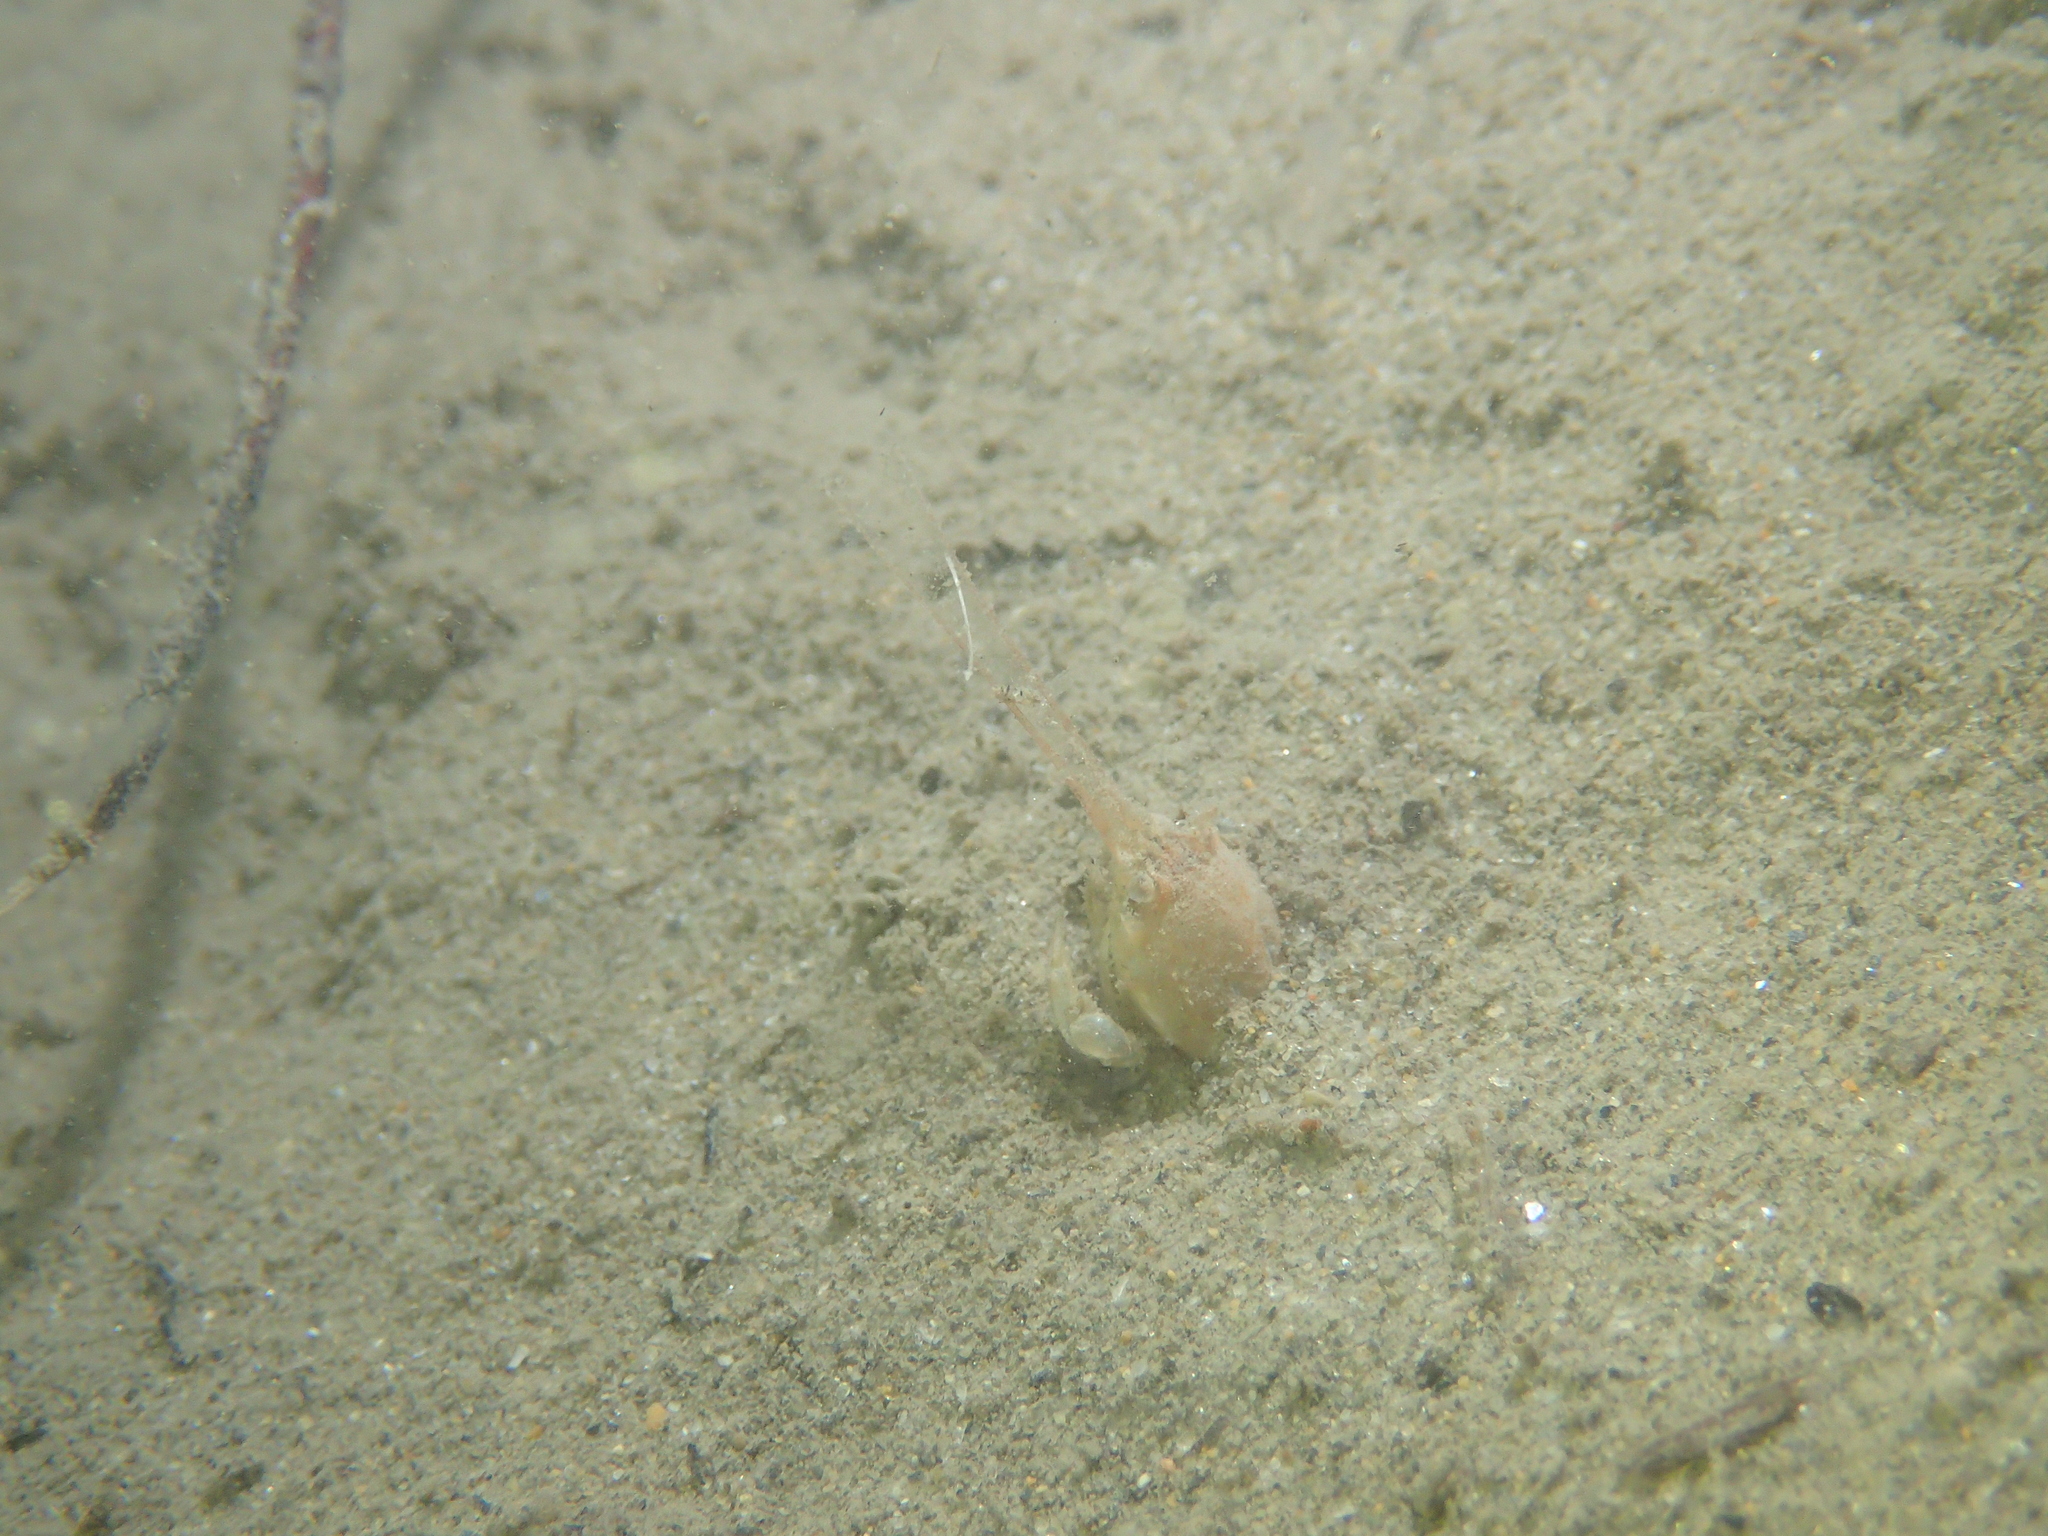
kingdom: Animalia
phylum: Arthropoda
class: Malacostraca
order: Decapoda
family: Corystidae
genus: Corystes
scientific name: Corystes cassivelaunus
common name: Masked crab
